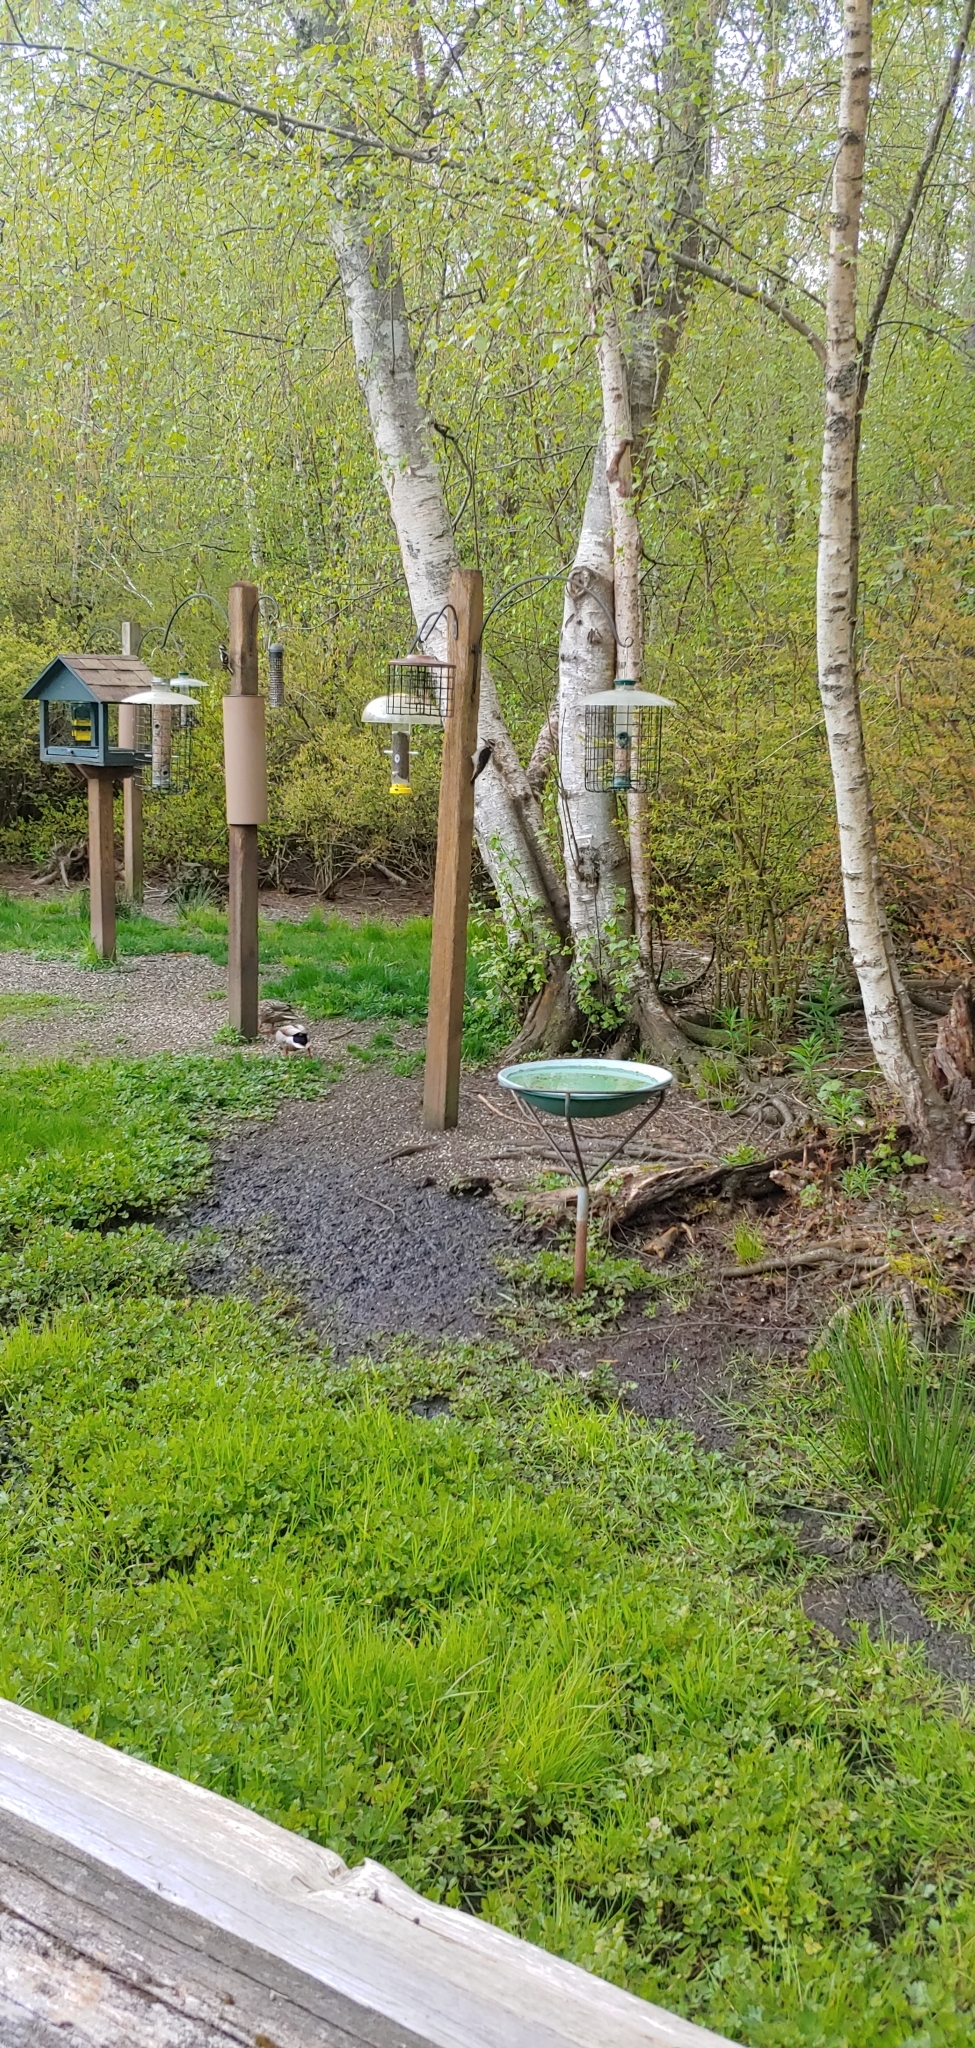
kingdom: Animalia
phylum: Chordata
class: Aves
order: Piciformes
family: Picidae
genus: Leuconotopicus
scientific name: Leuconotopicus villosus
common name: Hairy woodpecker
